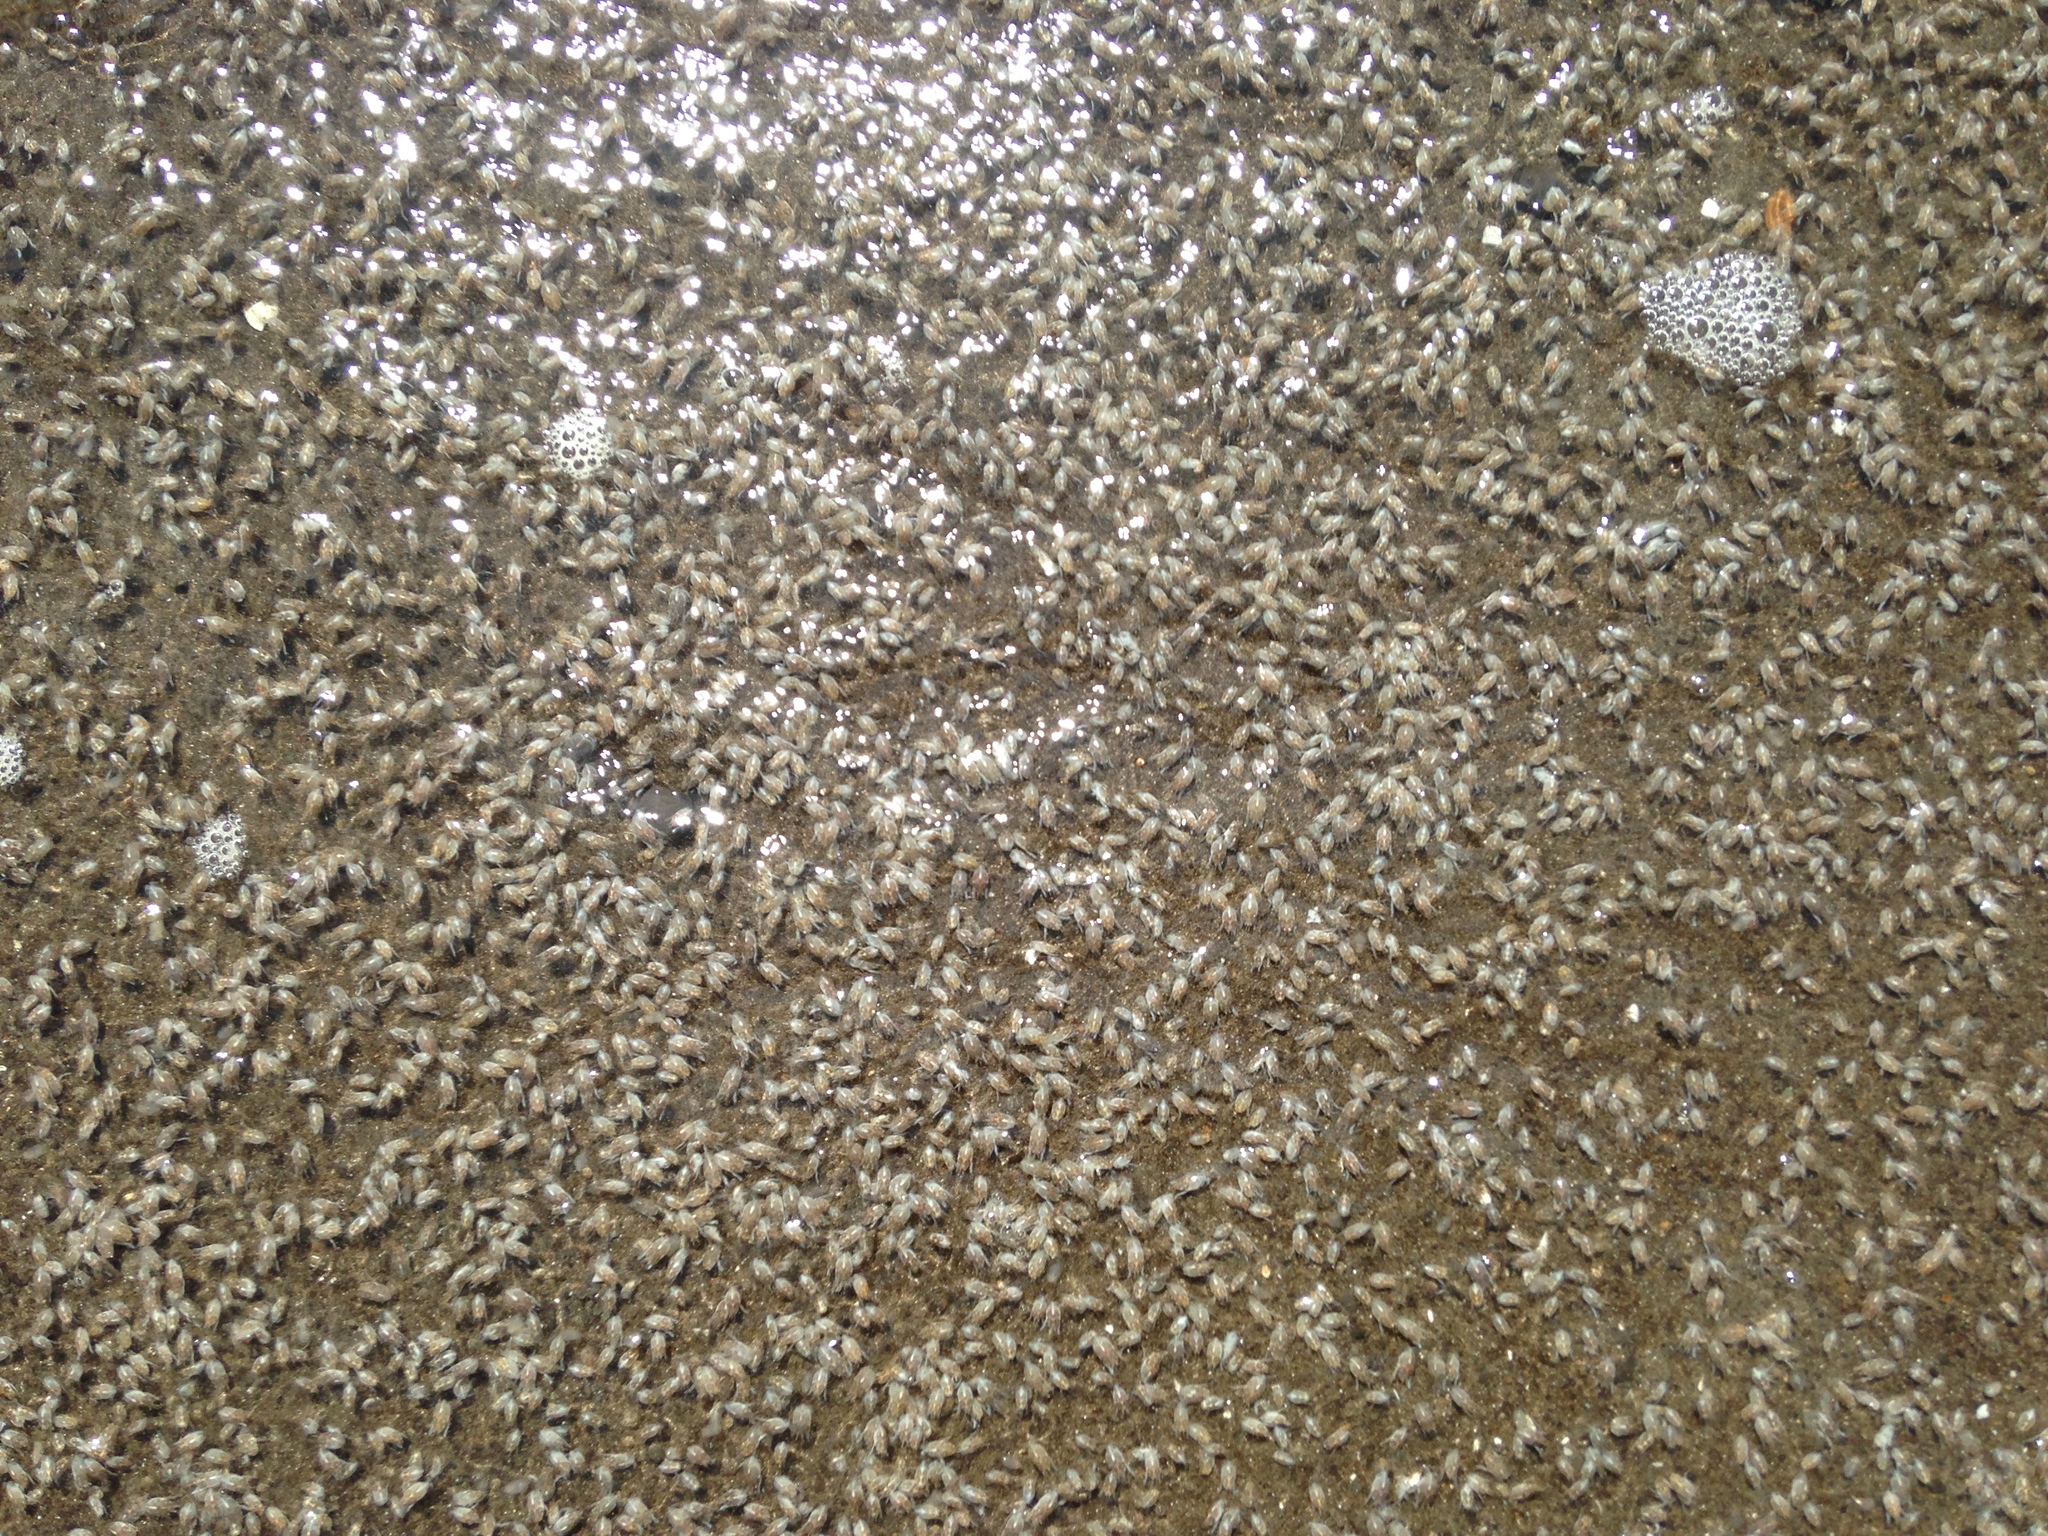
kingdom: Animalia
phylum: Arthropoda
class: Malacostraca
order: Decapoda
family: Hippidae
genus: Emerita
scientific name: Emerita analoga
